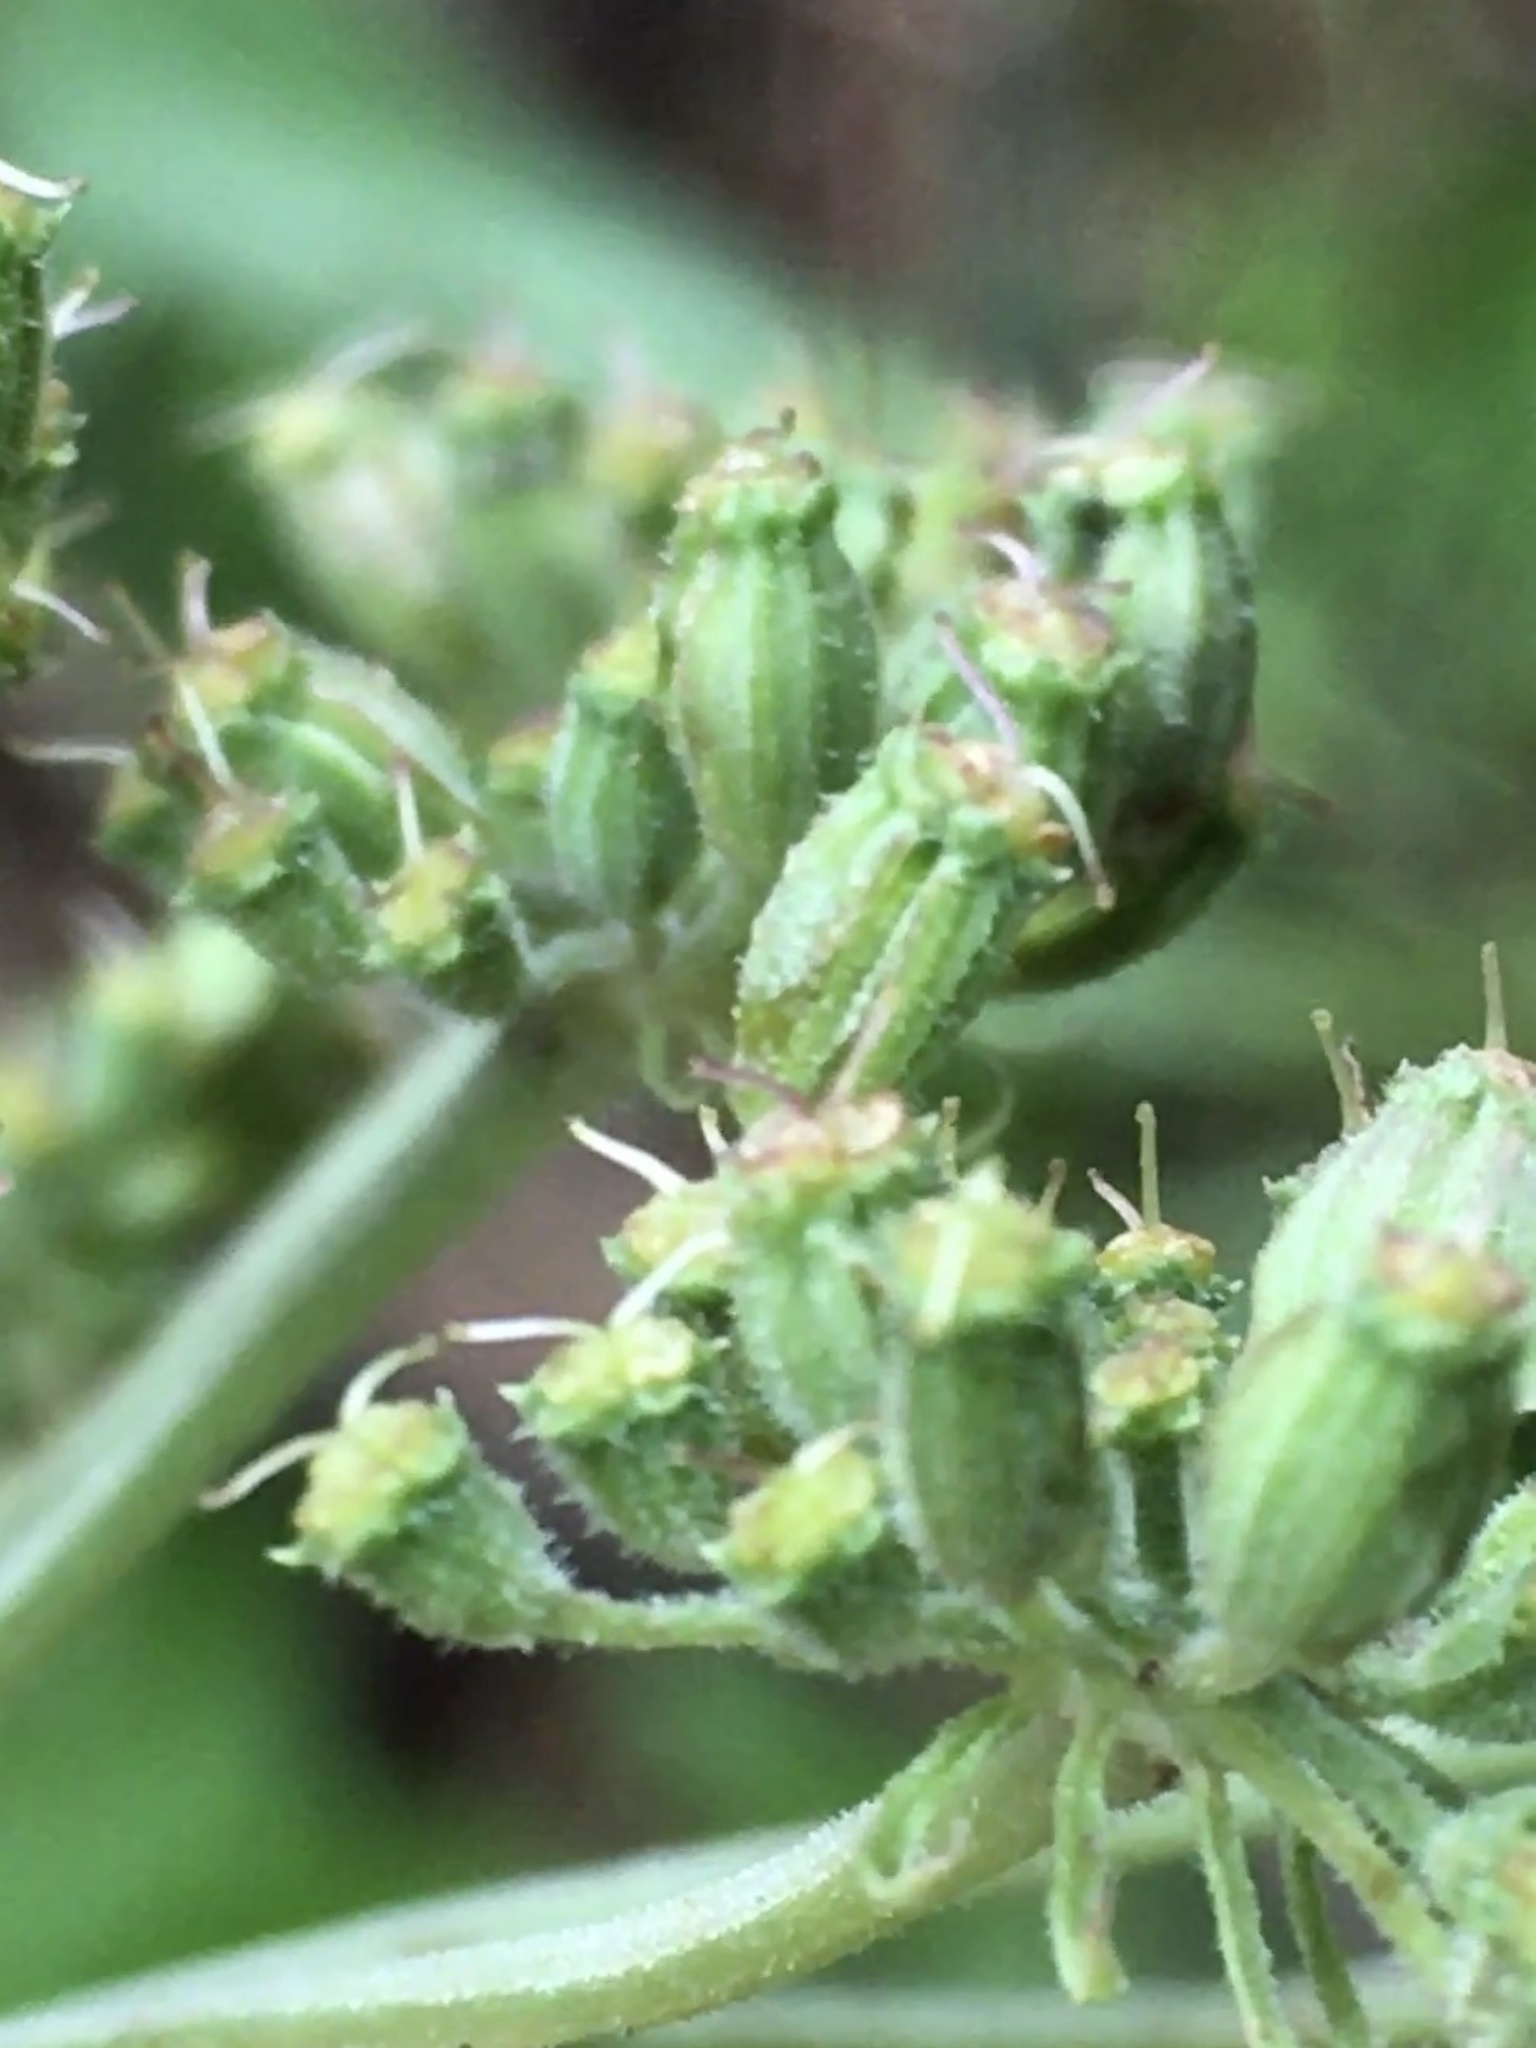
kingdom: Plantae
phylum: Tracheophyta
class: Magnoliopsida
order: Apiales
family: Apiaceae
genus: Angelica
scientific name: Angelica venenosa
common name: Hairy angelica
